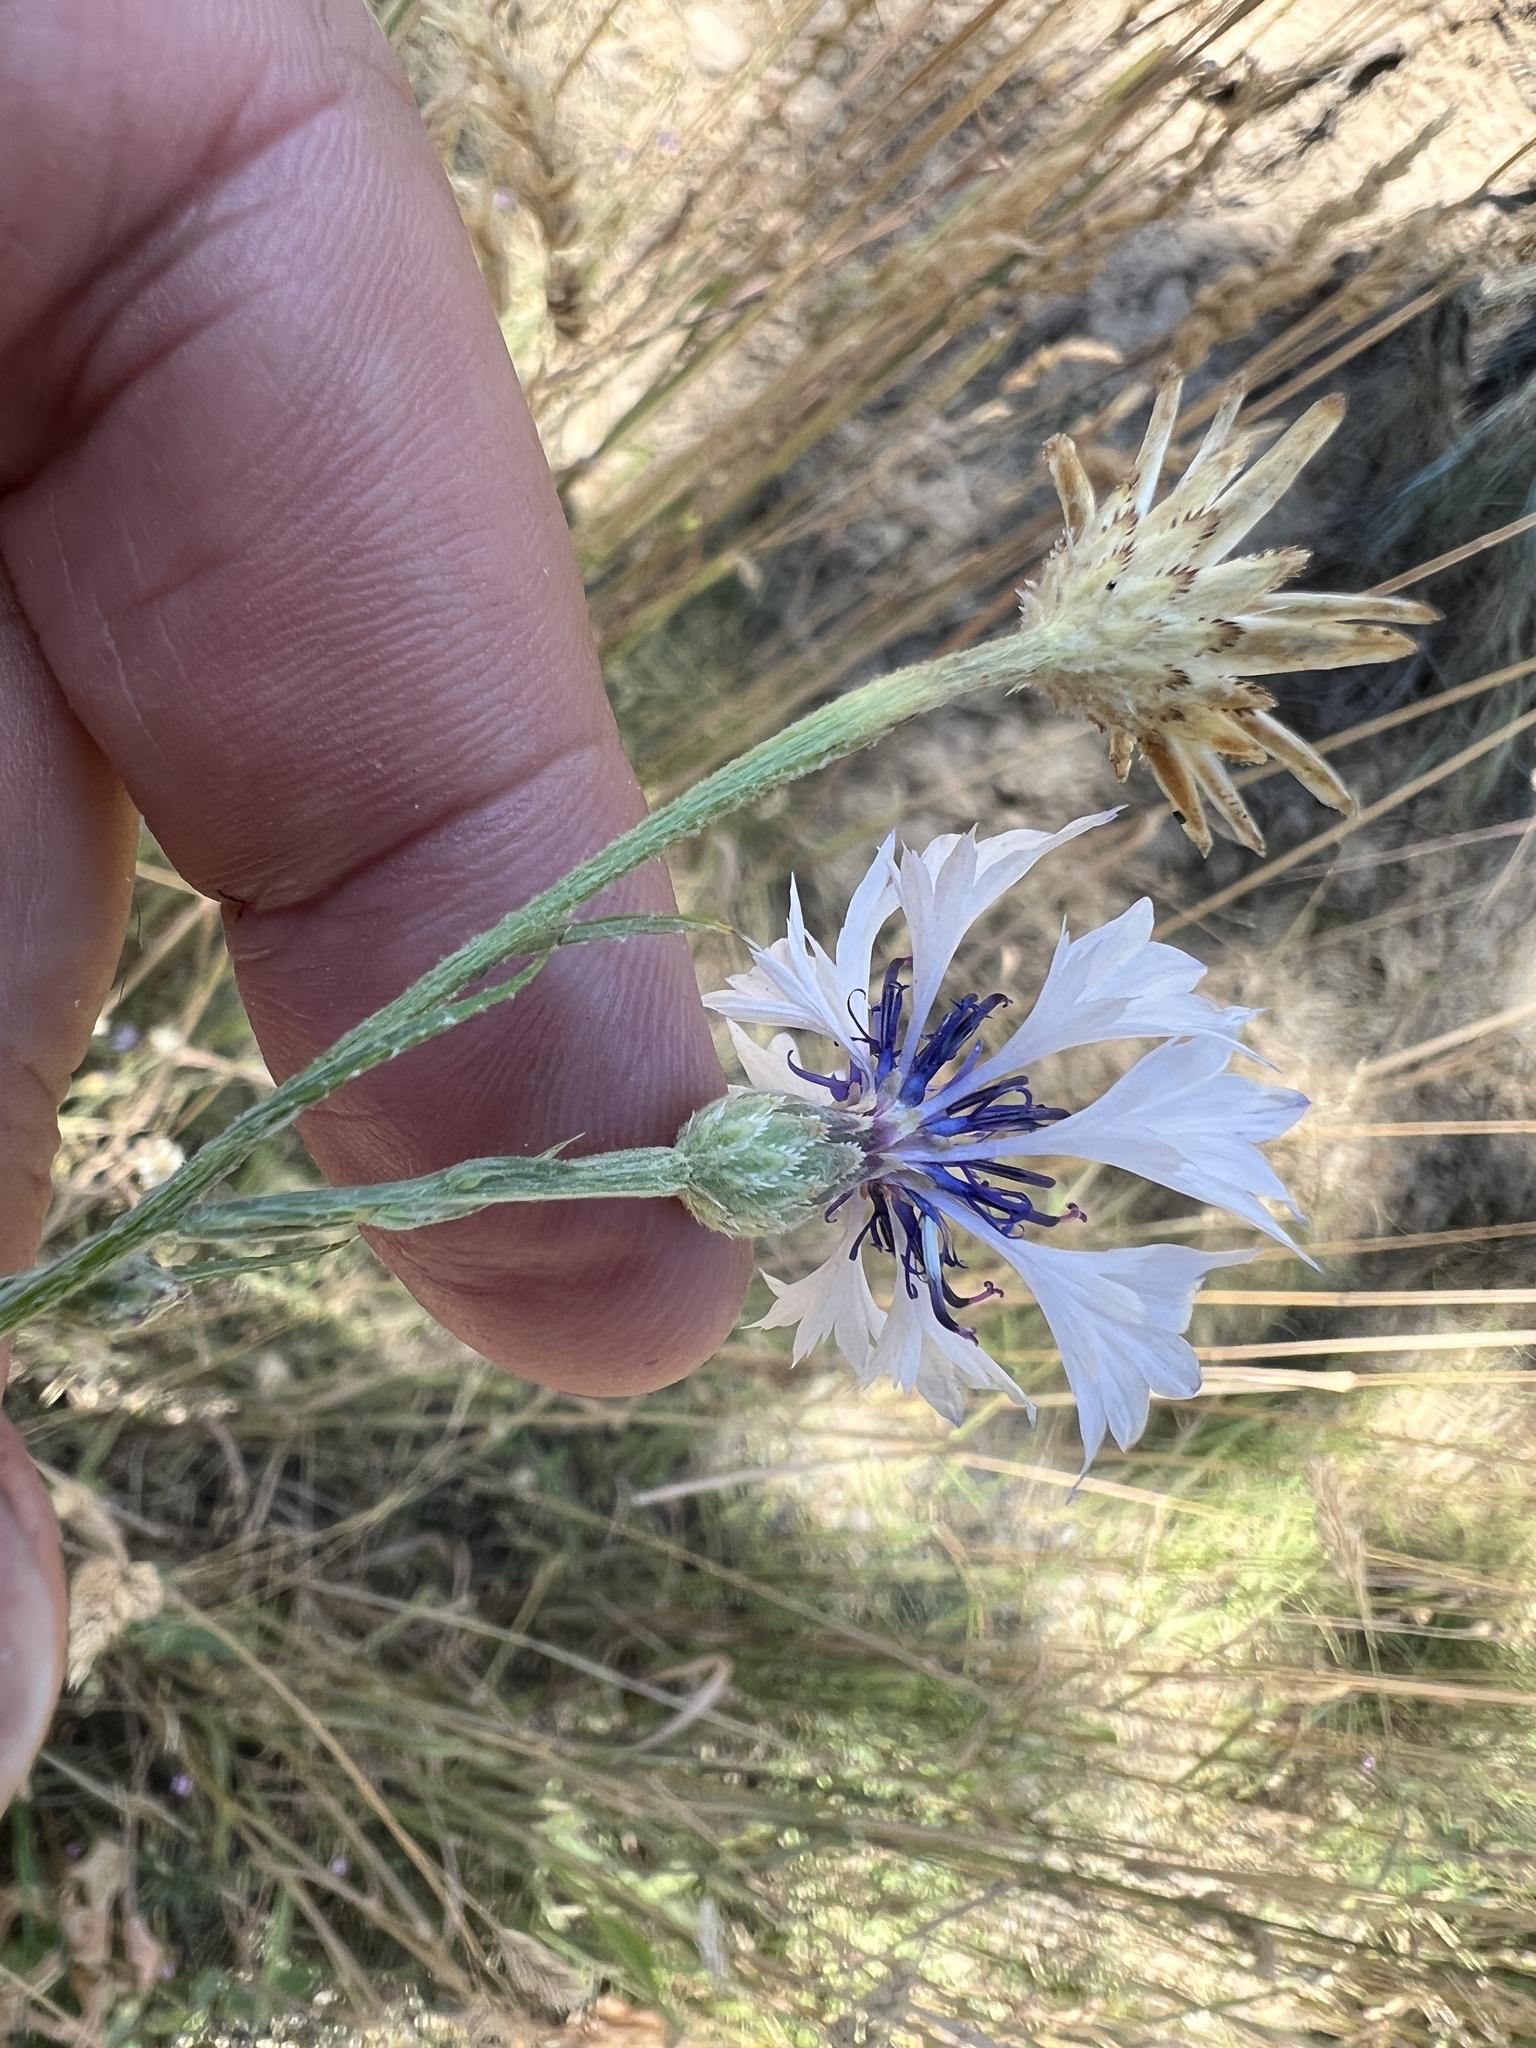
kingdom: Plantae
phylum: Tracheophyta
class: Magnoliopsida
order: Asterales
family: Asteraceae
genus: Centaurea
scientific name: Centaurea cyanus
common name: Cornflower
